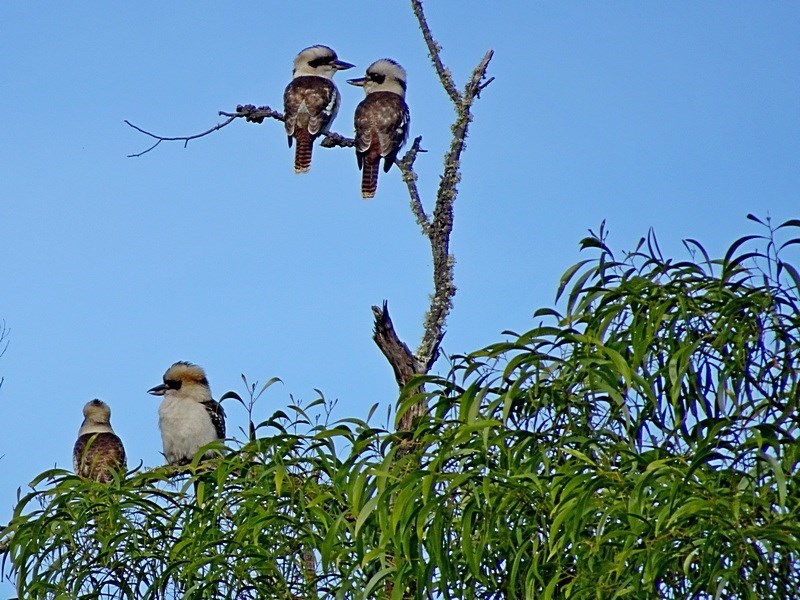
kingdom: Animalia
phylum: Chordata
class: Aves
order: Coraciiformes
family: Alcedinidae
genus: Dacelo
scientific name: Dacelo novaeguineae
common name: Laughing kookaburra
